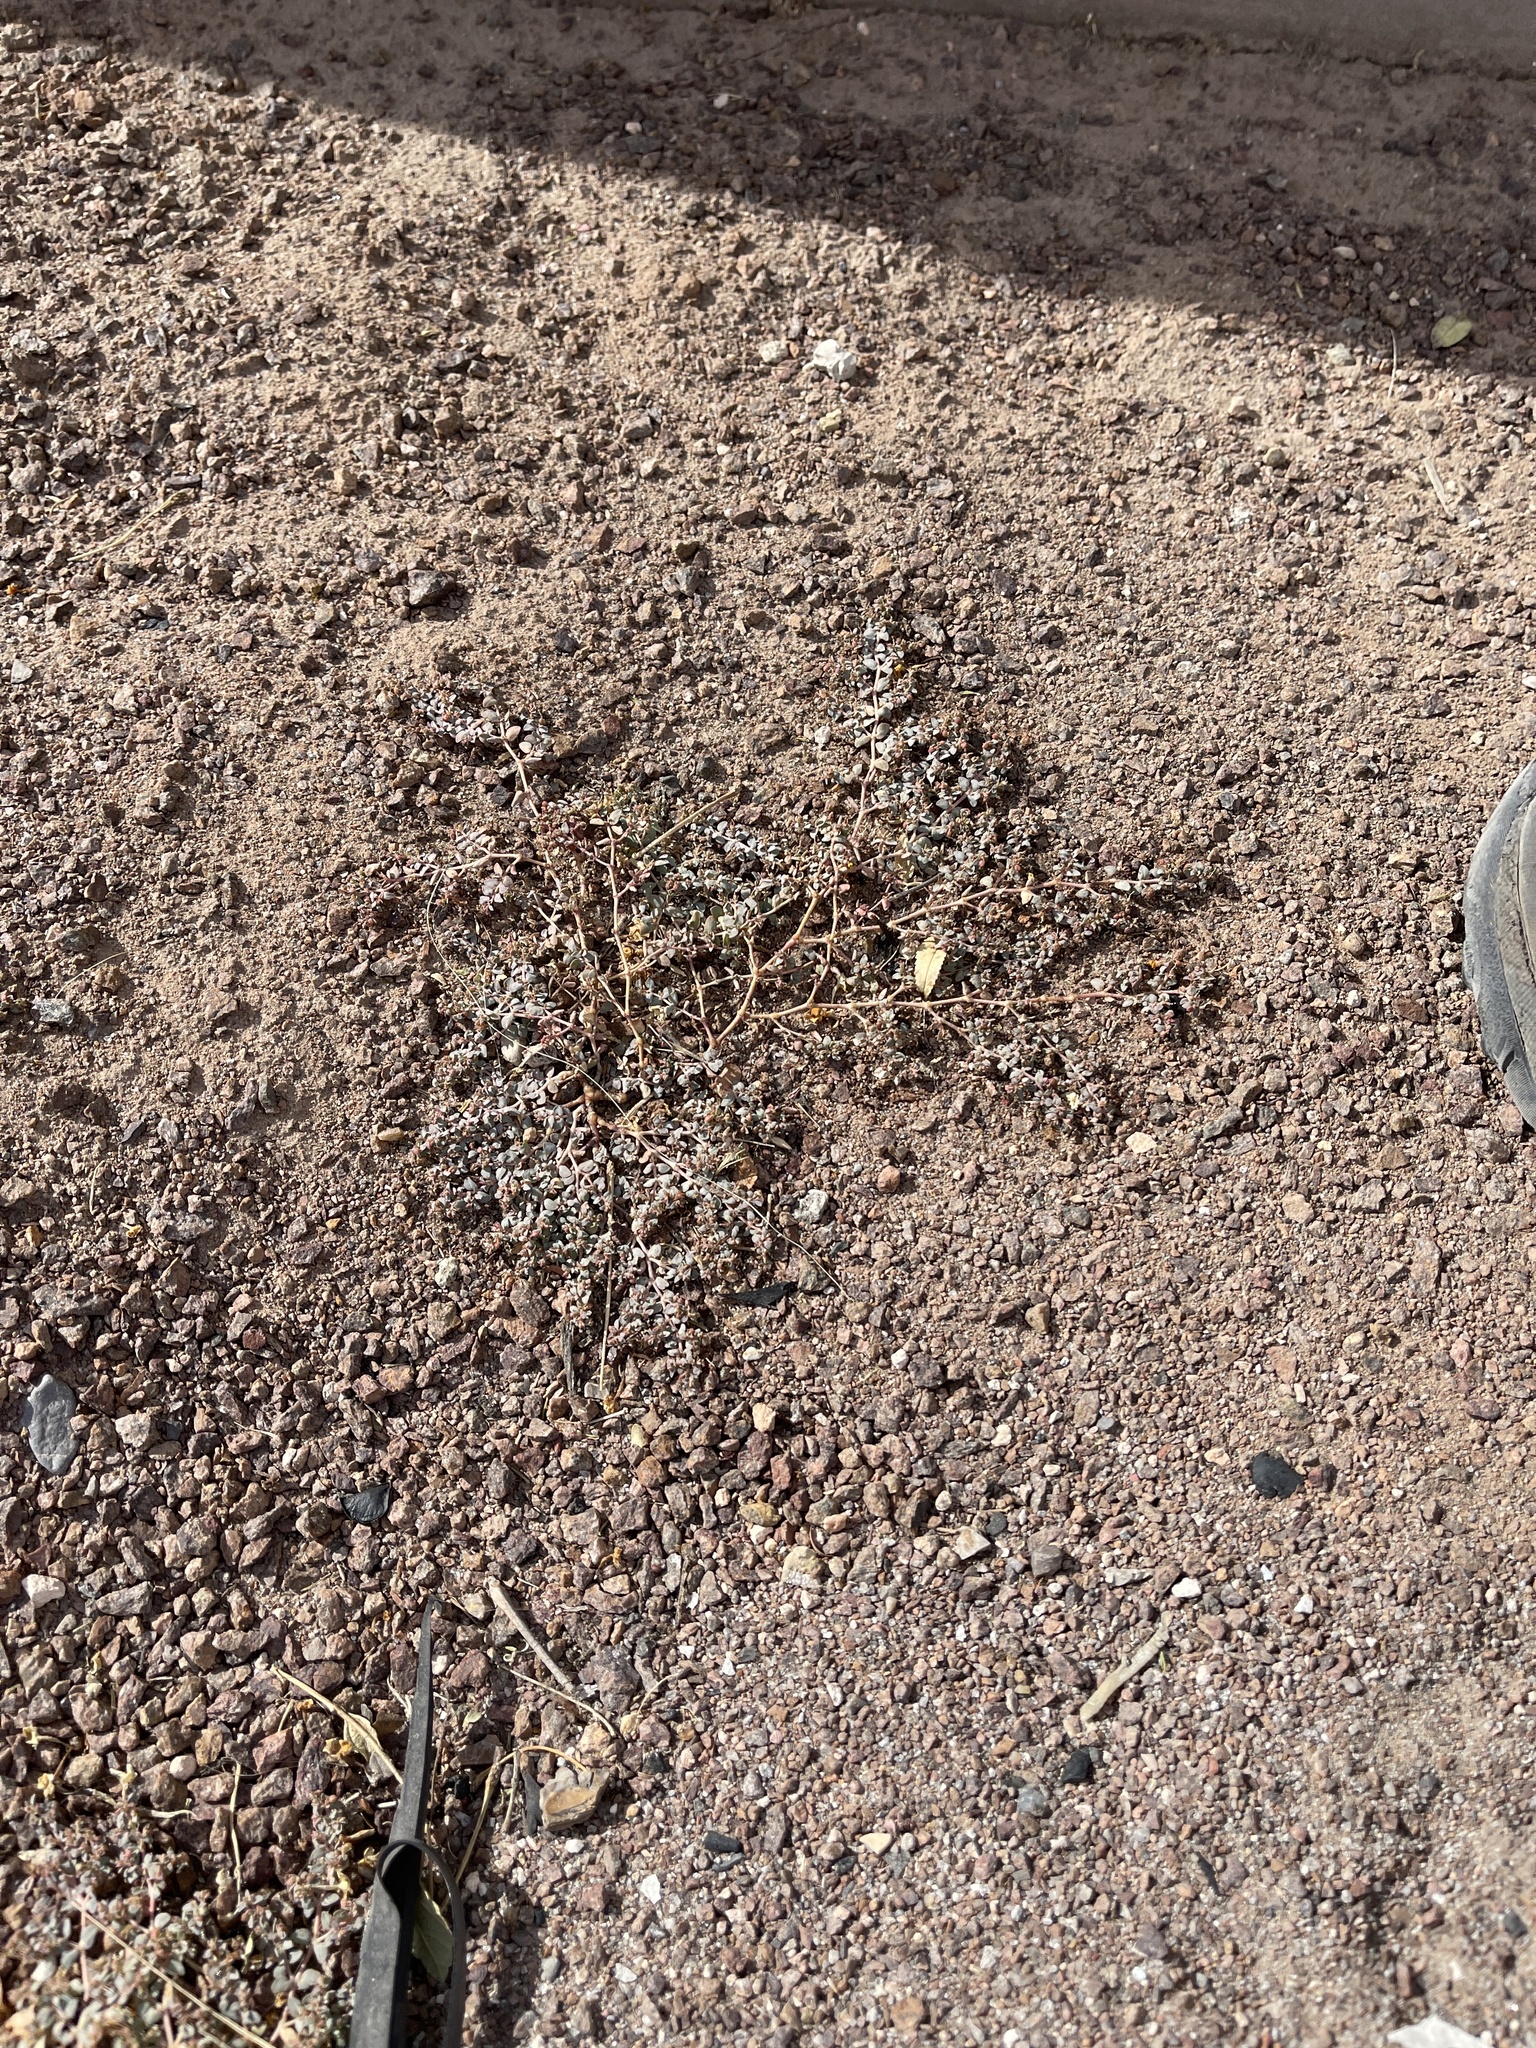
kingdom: Plantae
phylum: Tracheophyta
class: Magnoliopsida
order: Malpighiales
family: Euphorbiaceae
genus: Euphorbia
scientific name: Euphorbia micromera
